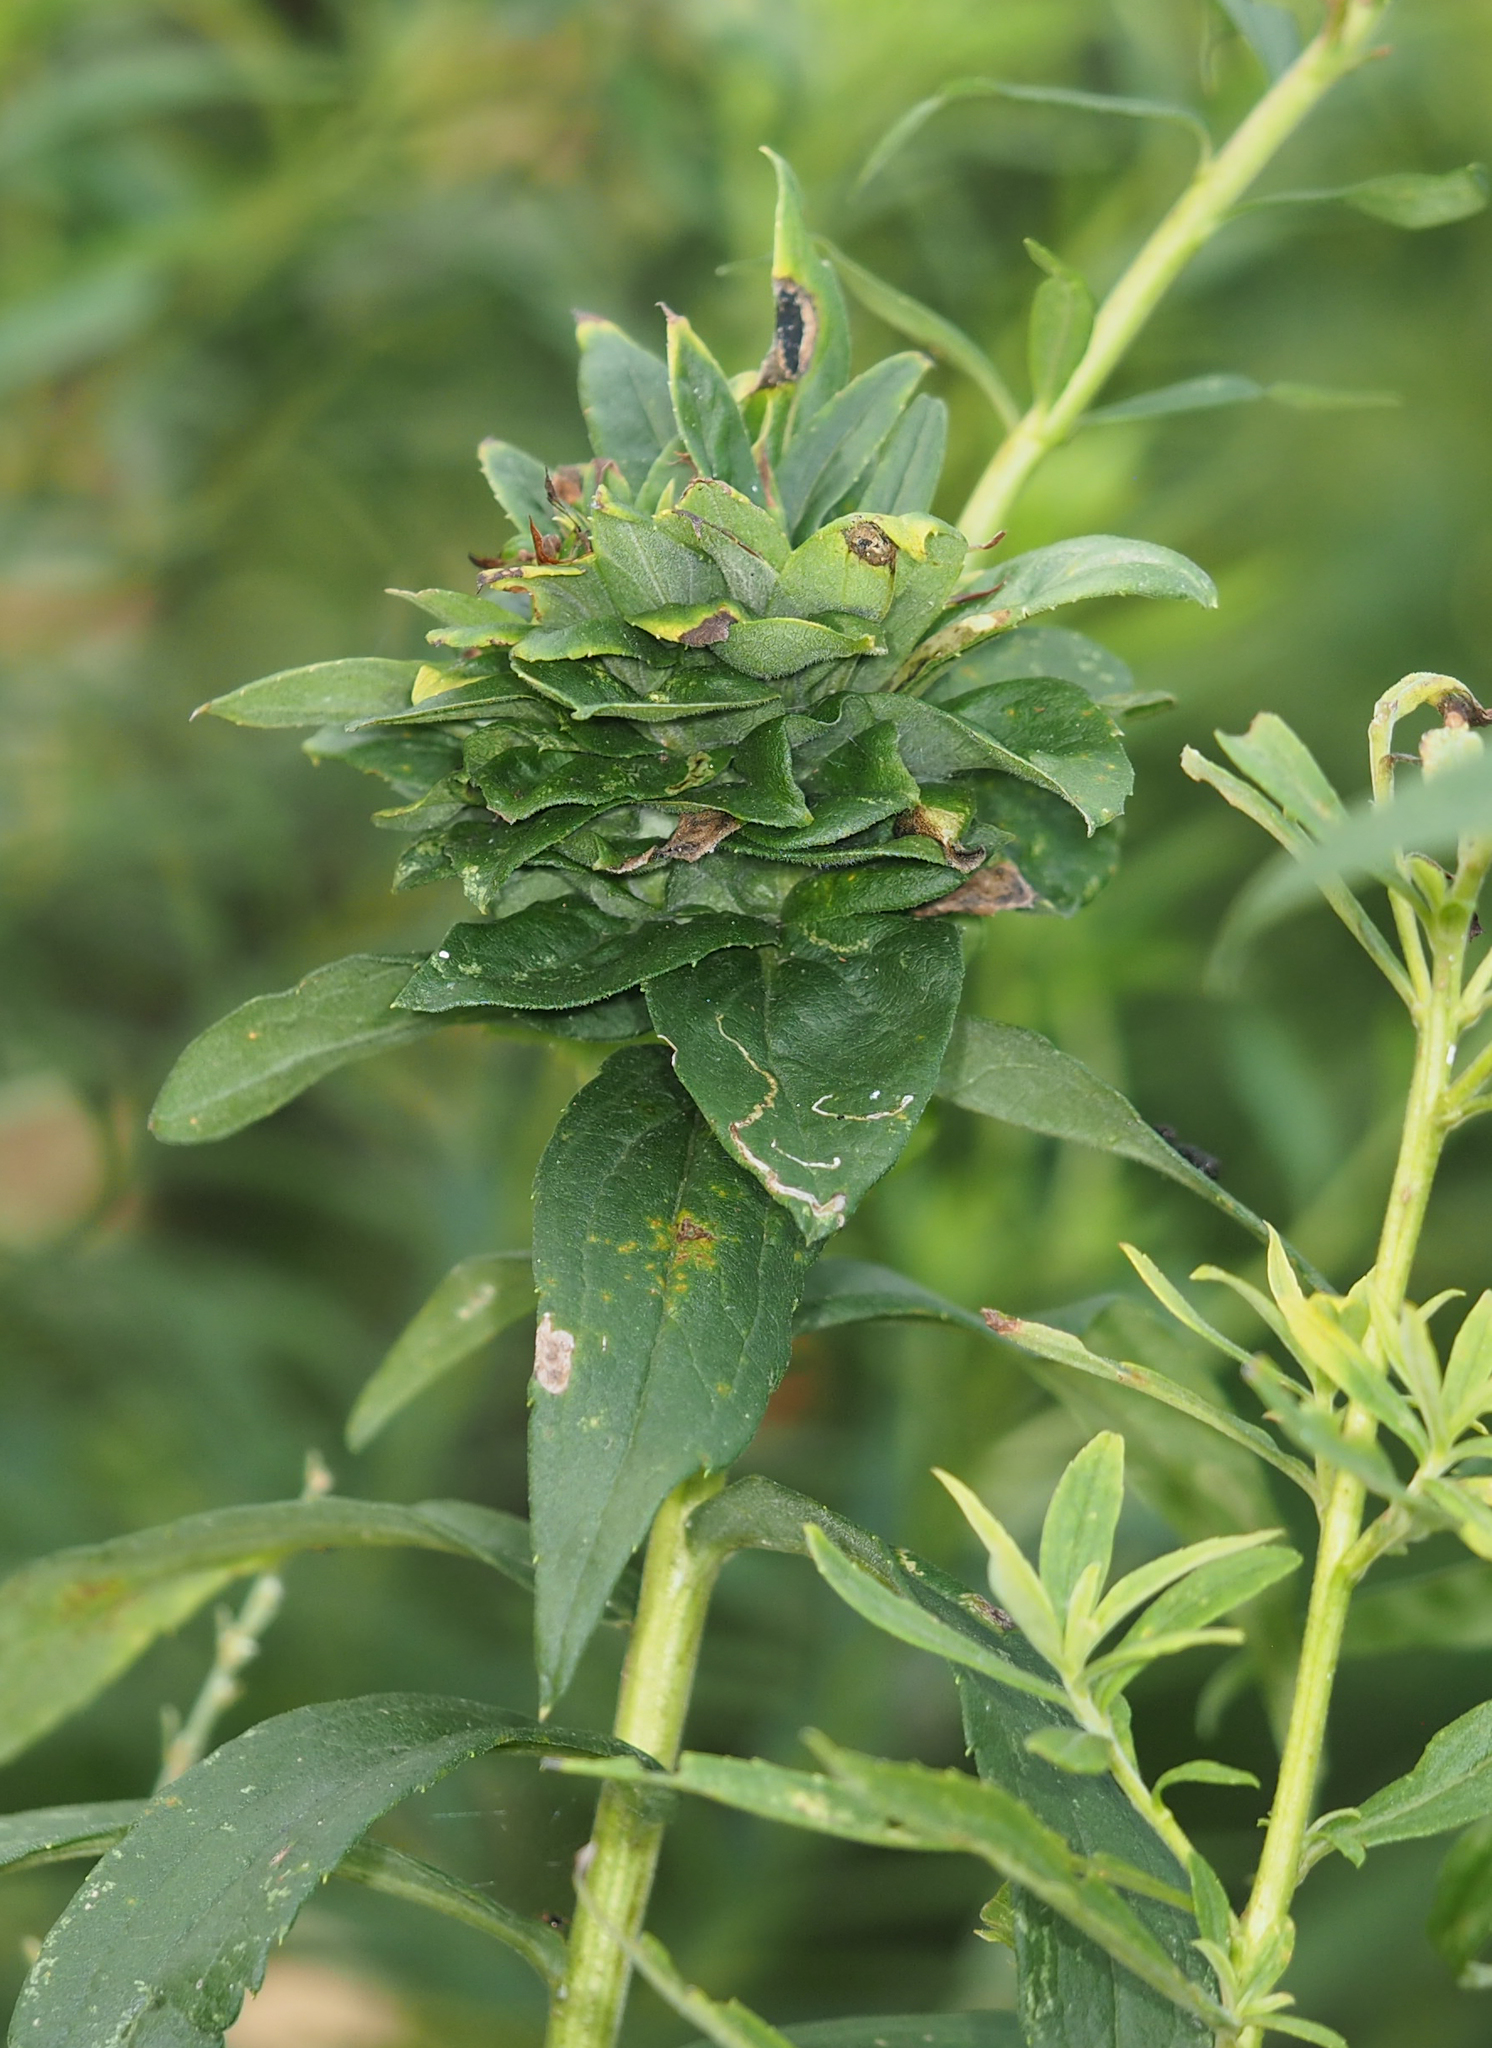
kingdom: Animalia
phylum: Arthropoda
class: Insecta
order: Diptera
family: Cecidomyiidae
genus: Rhopalomyia
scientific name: Rhopalomyia solidaginis
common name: Goldenrod bunch gall midge
